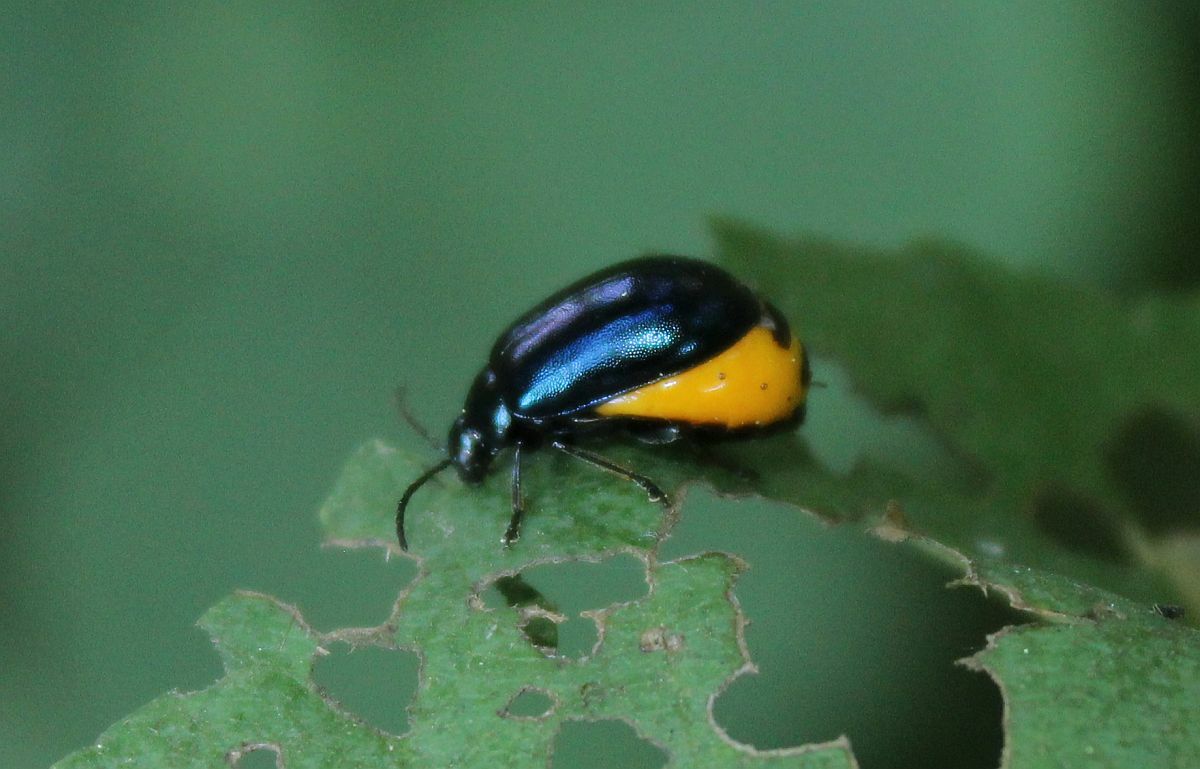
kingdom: Animalia
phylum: Arthropoda
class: Insecta
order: Coleoptera
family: Chrysomelidae
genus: Agelastica
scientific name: Agelastica alni
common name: Alder leaf beetle
